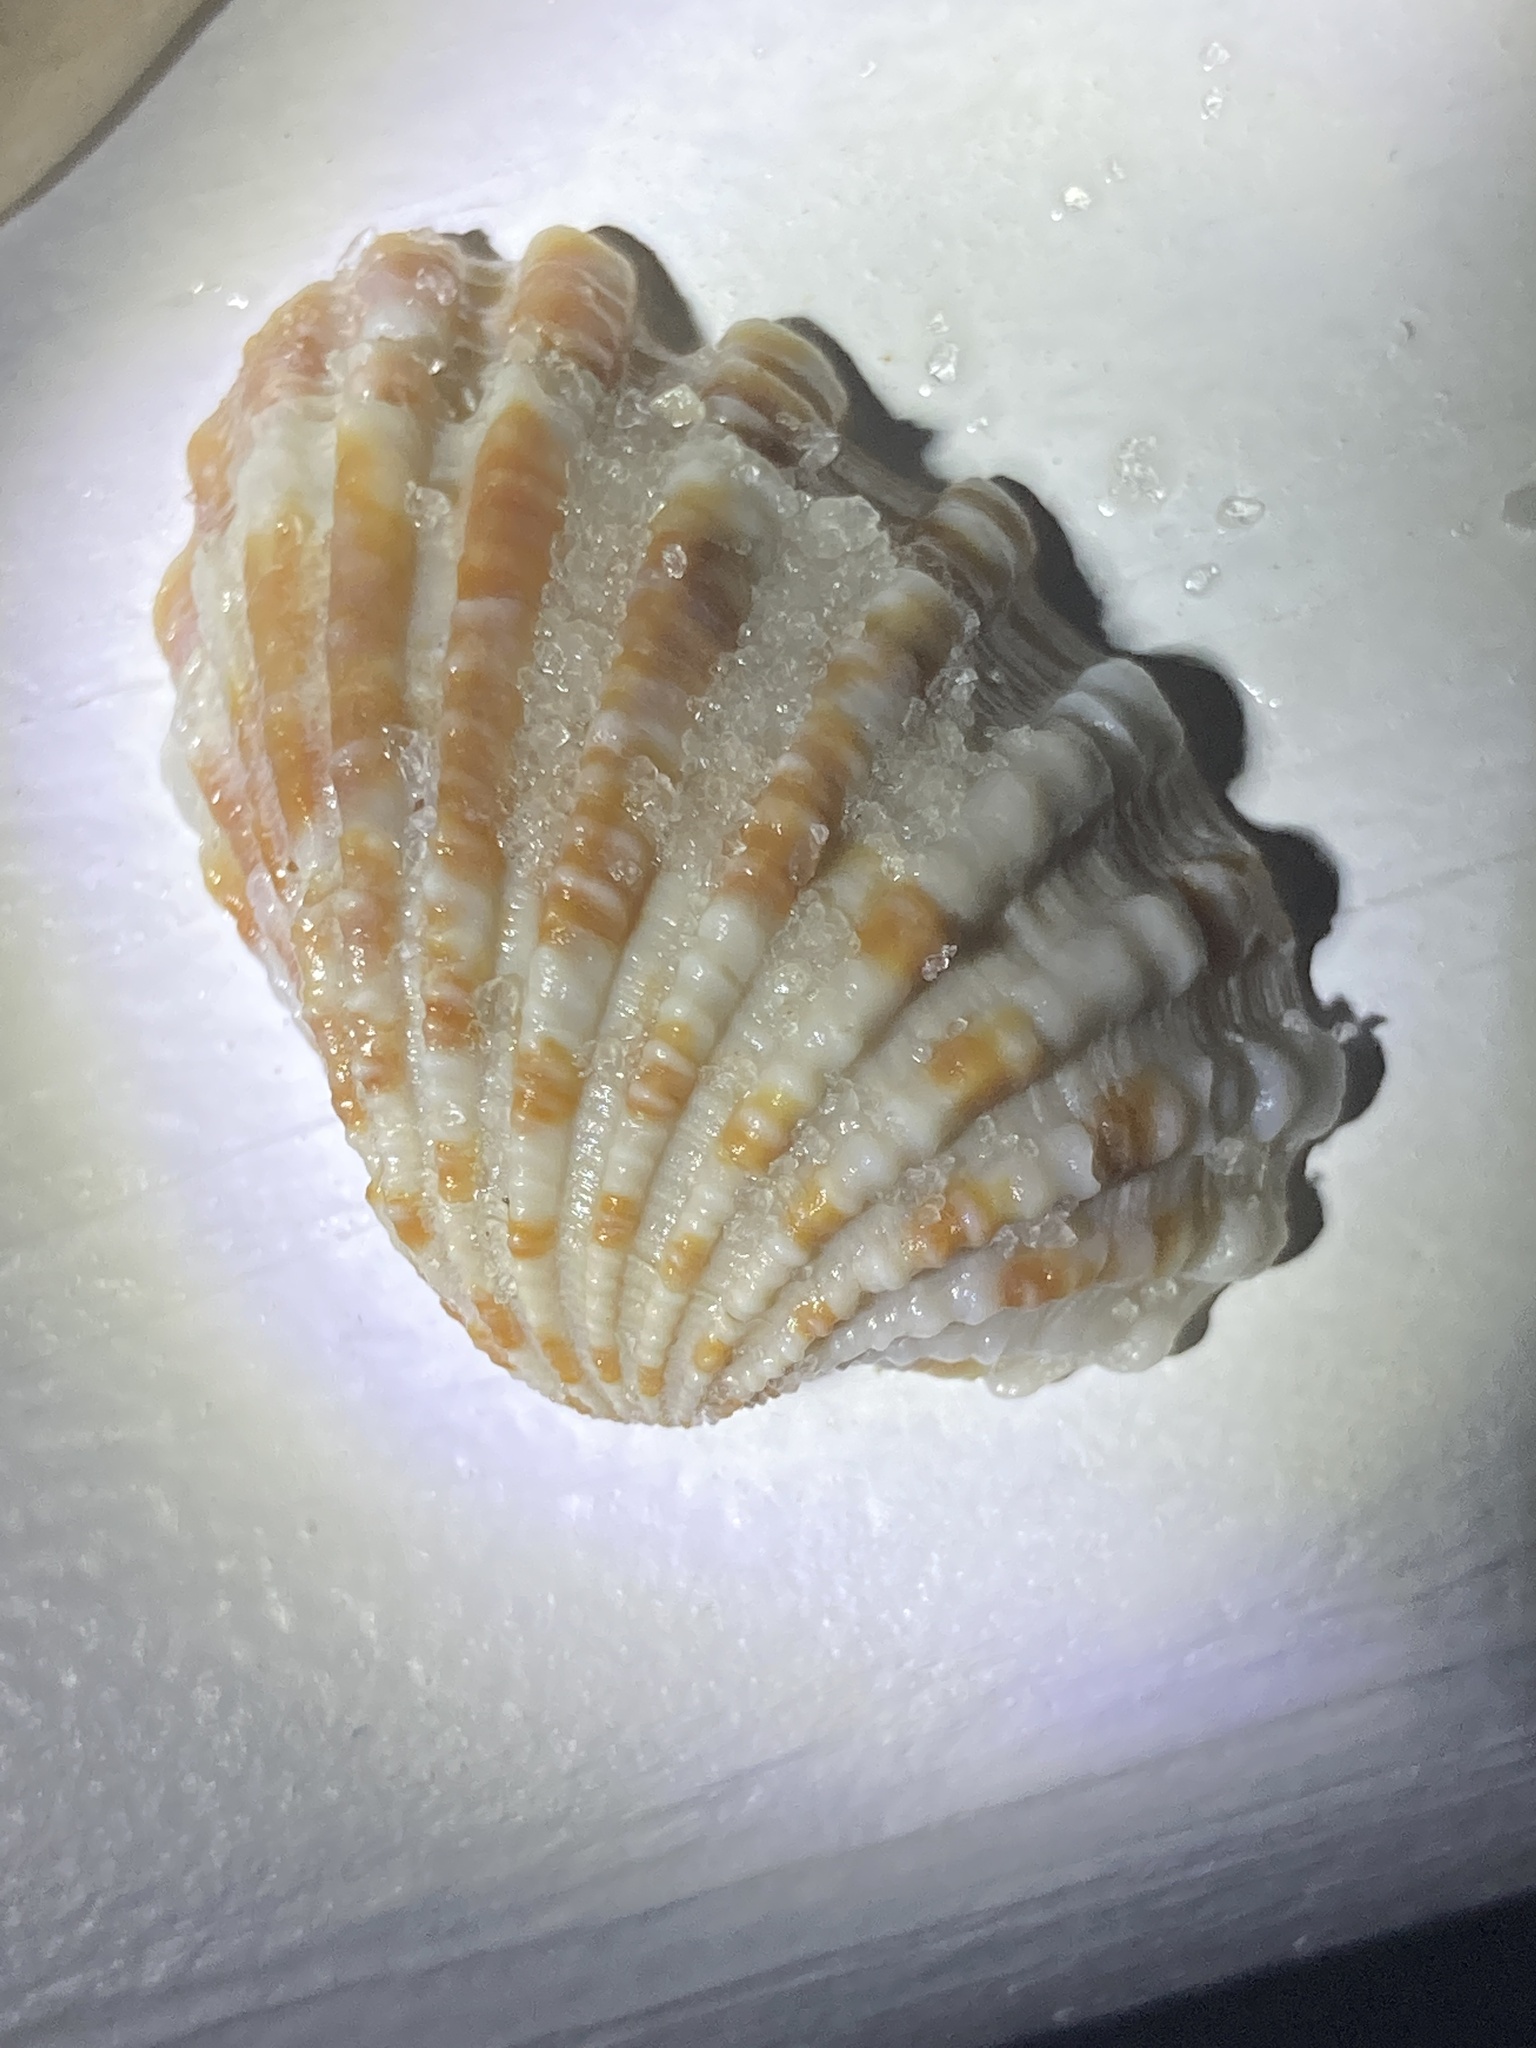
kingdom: Animalia
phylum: Mollusca
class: Bivalvia
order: Carditida
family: Carditidae
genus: Cardites
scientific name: Cardites floridanus
